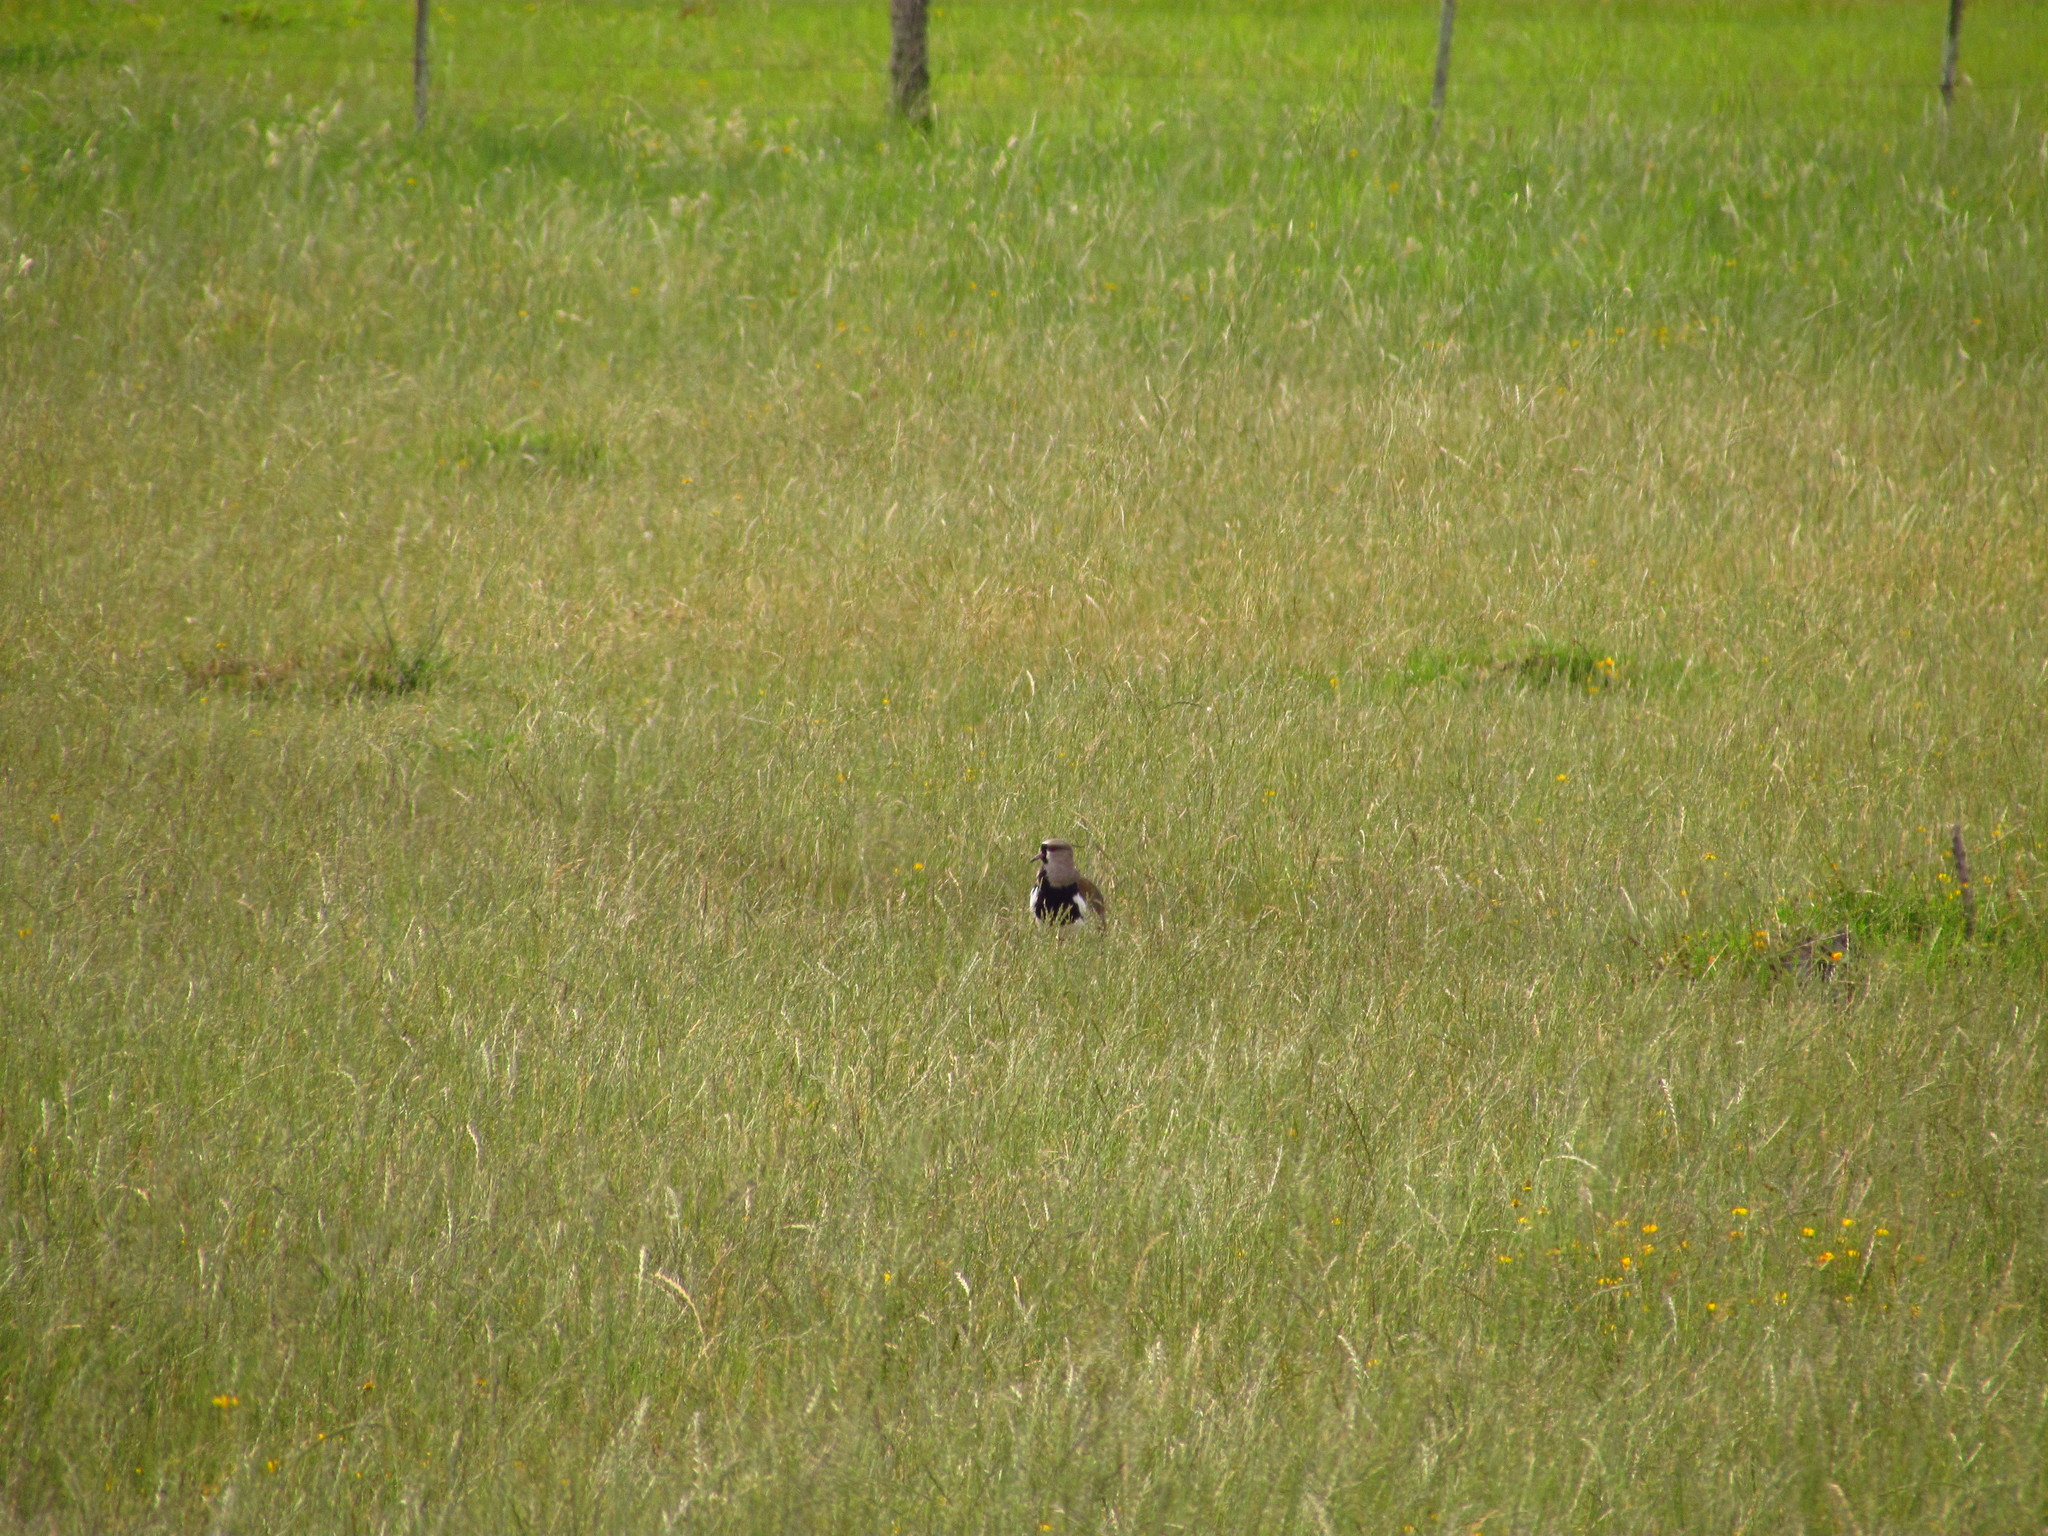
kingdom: Animalia
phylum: Chordata
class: Aves
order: Charadriiformes
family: Charadriidae
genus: Vanellus
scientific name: Vanellus chilensis
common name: Southern lapwing
